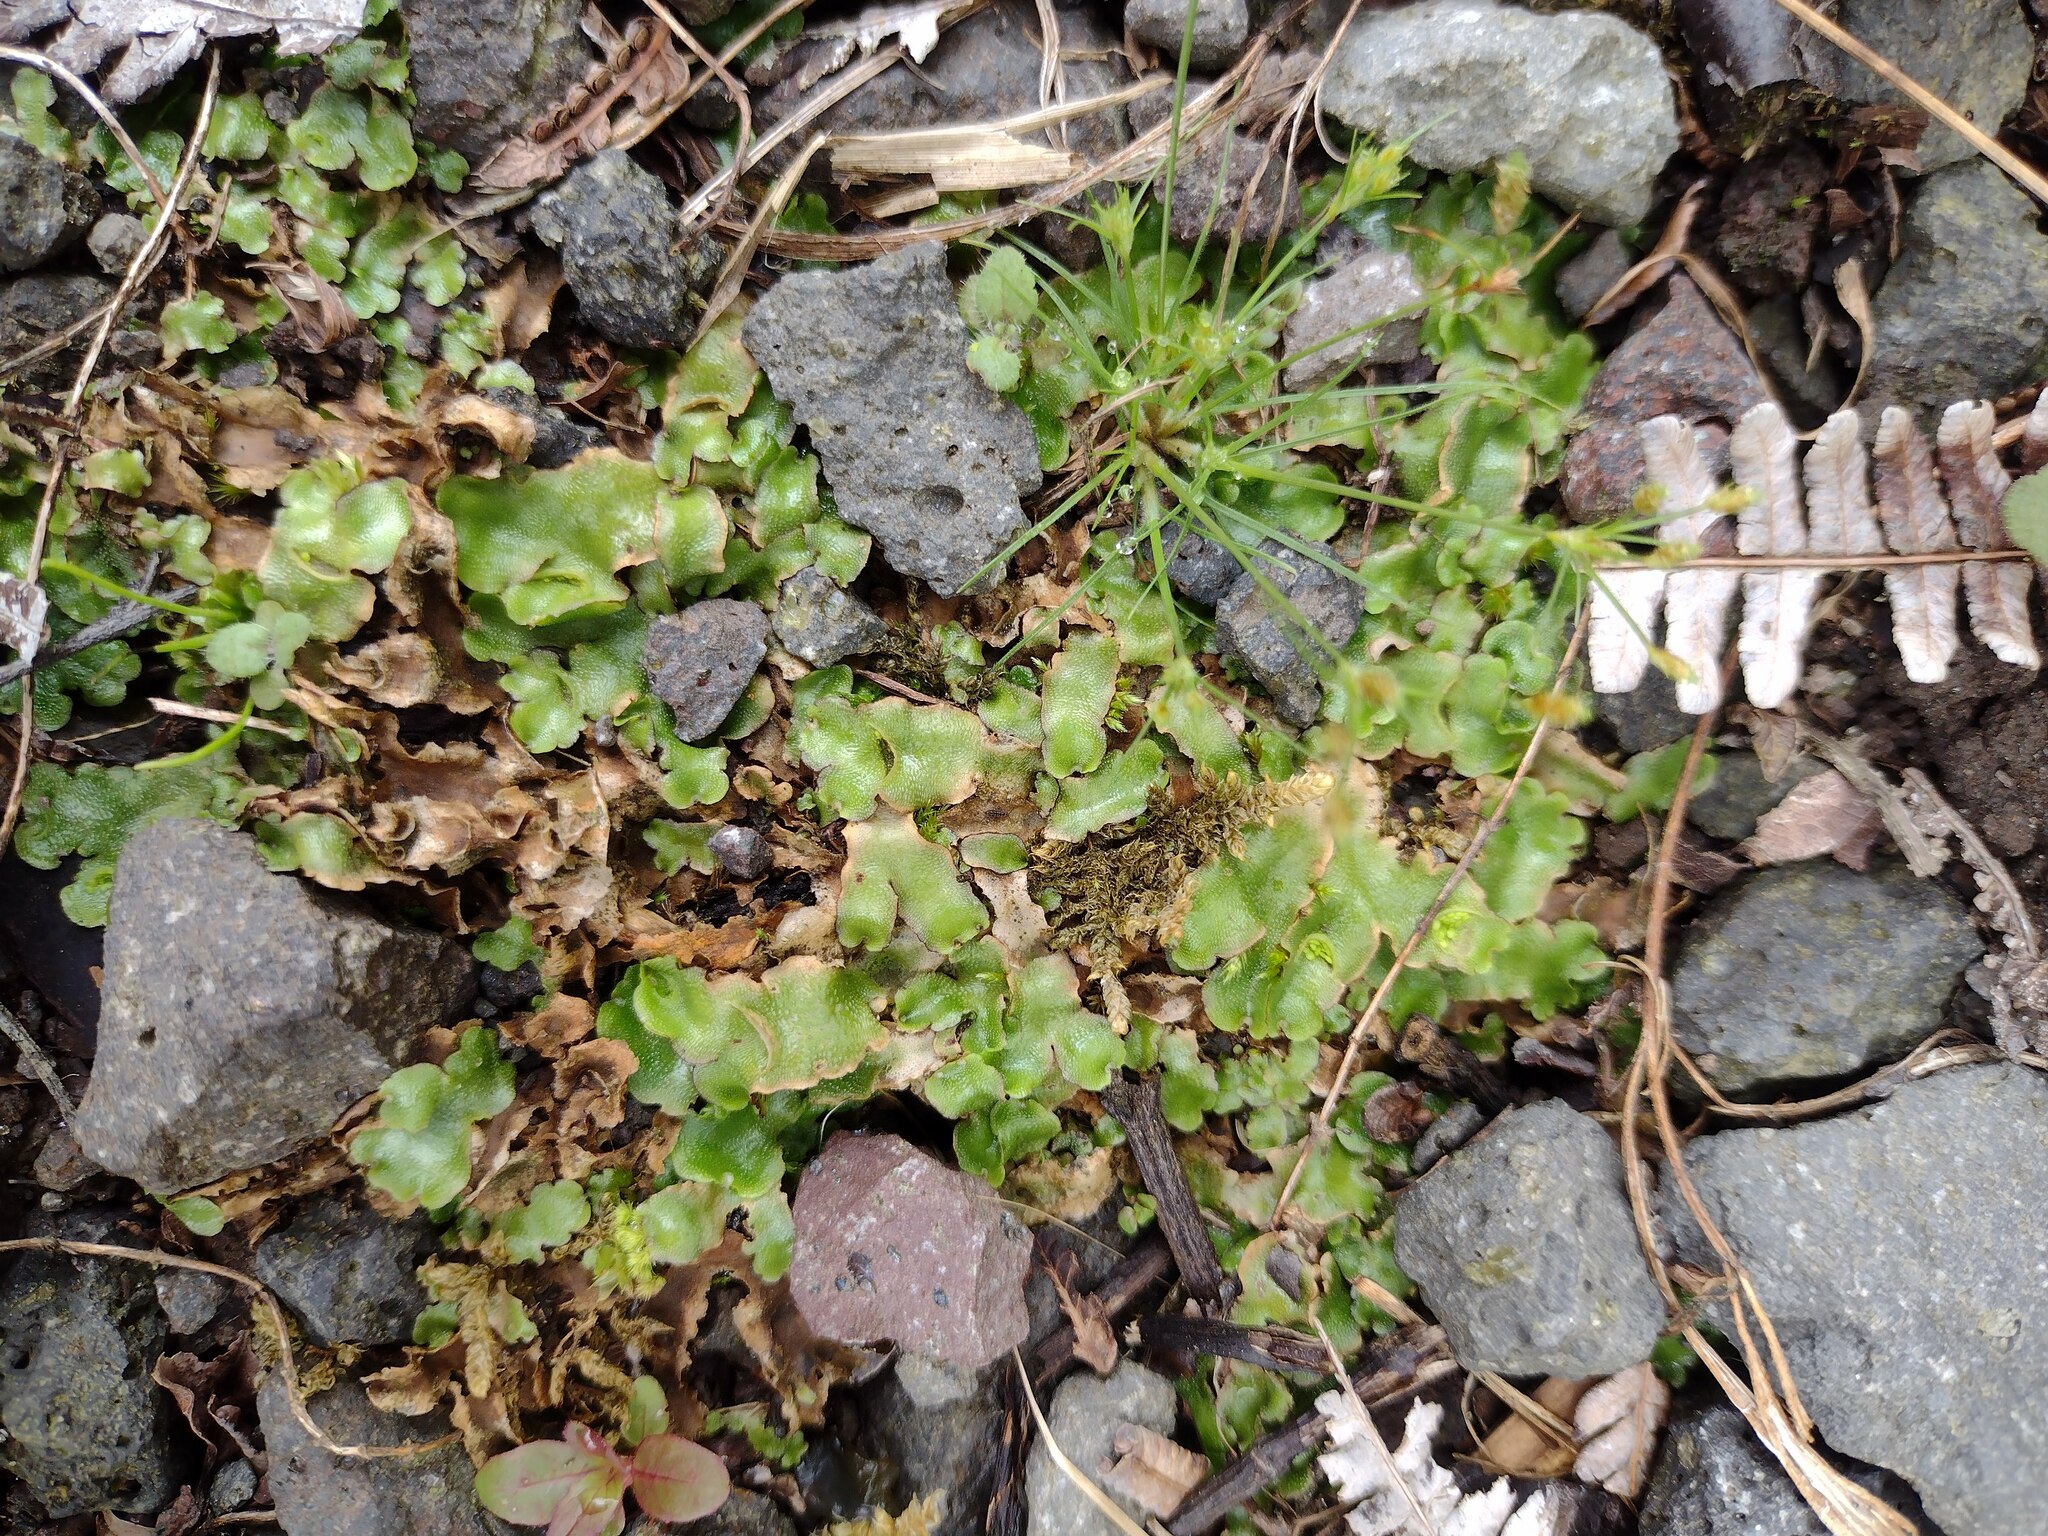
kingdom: Plantae
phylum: Marchantiophyta
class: Marchantiopsida
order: Lunulariales
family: Lunulariaceae
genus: Lunularia
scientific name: Lunularia cruciata
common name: Crescent-cup liverwort
